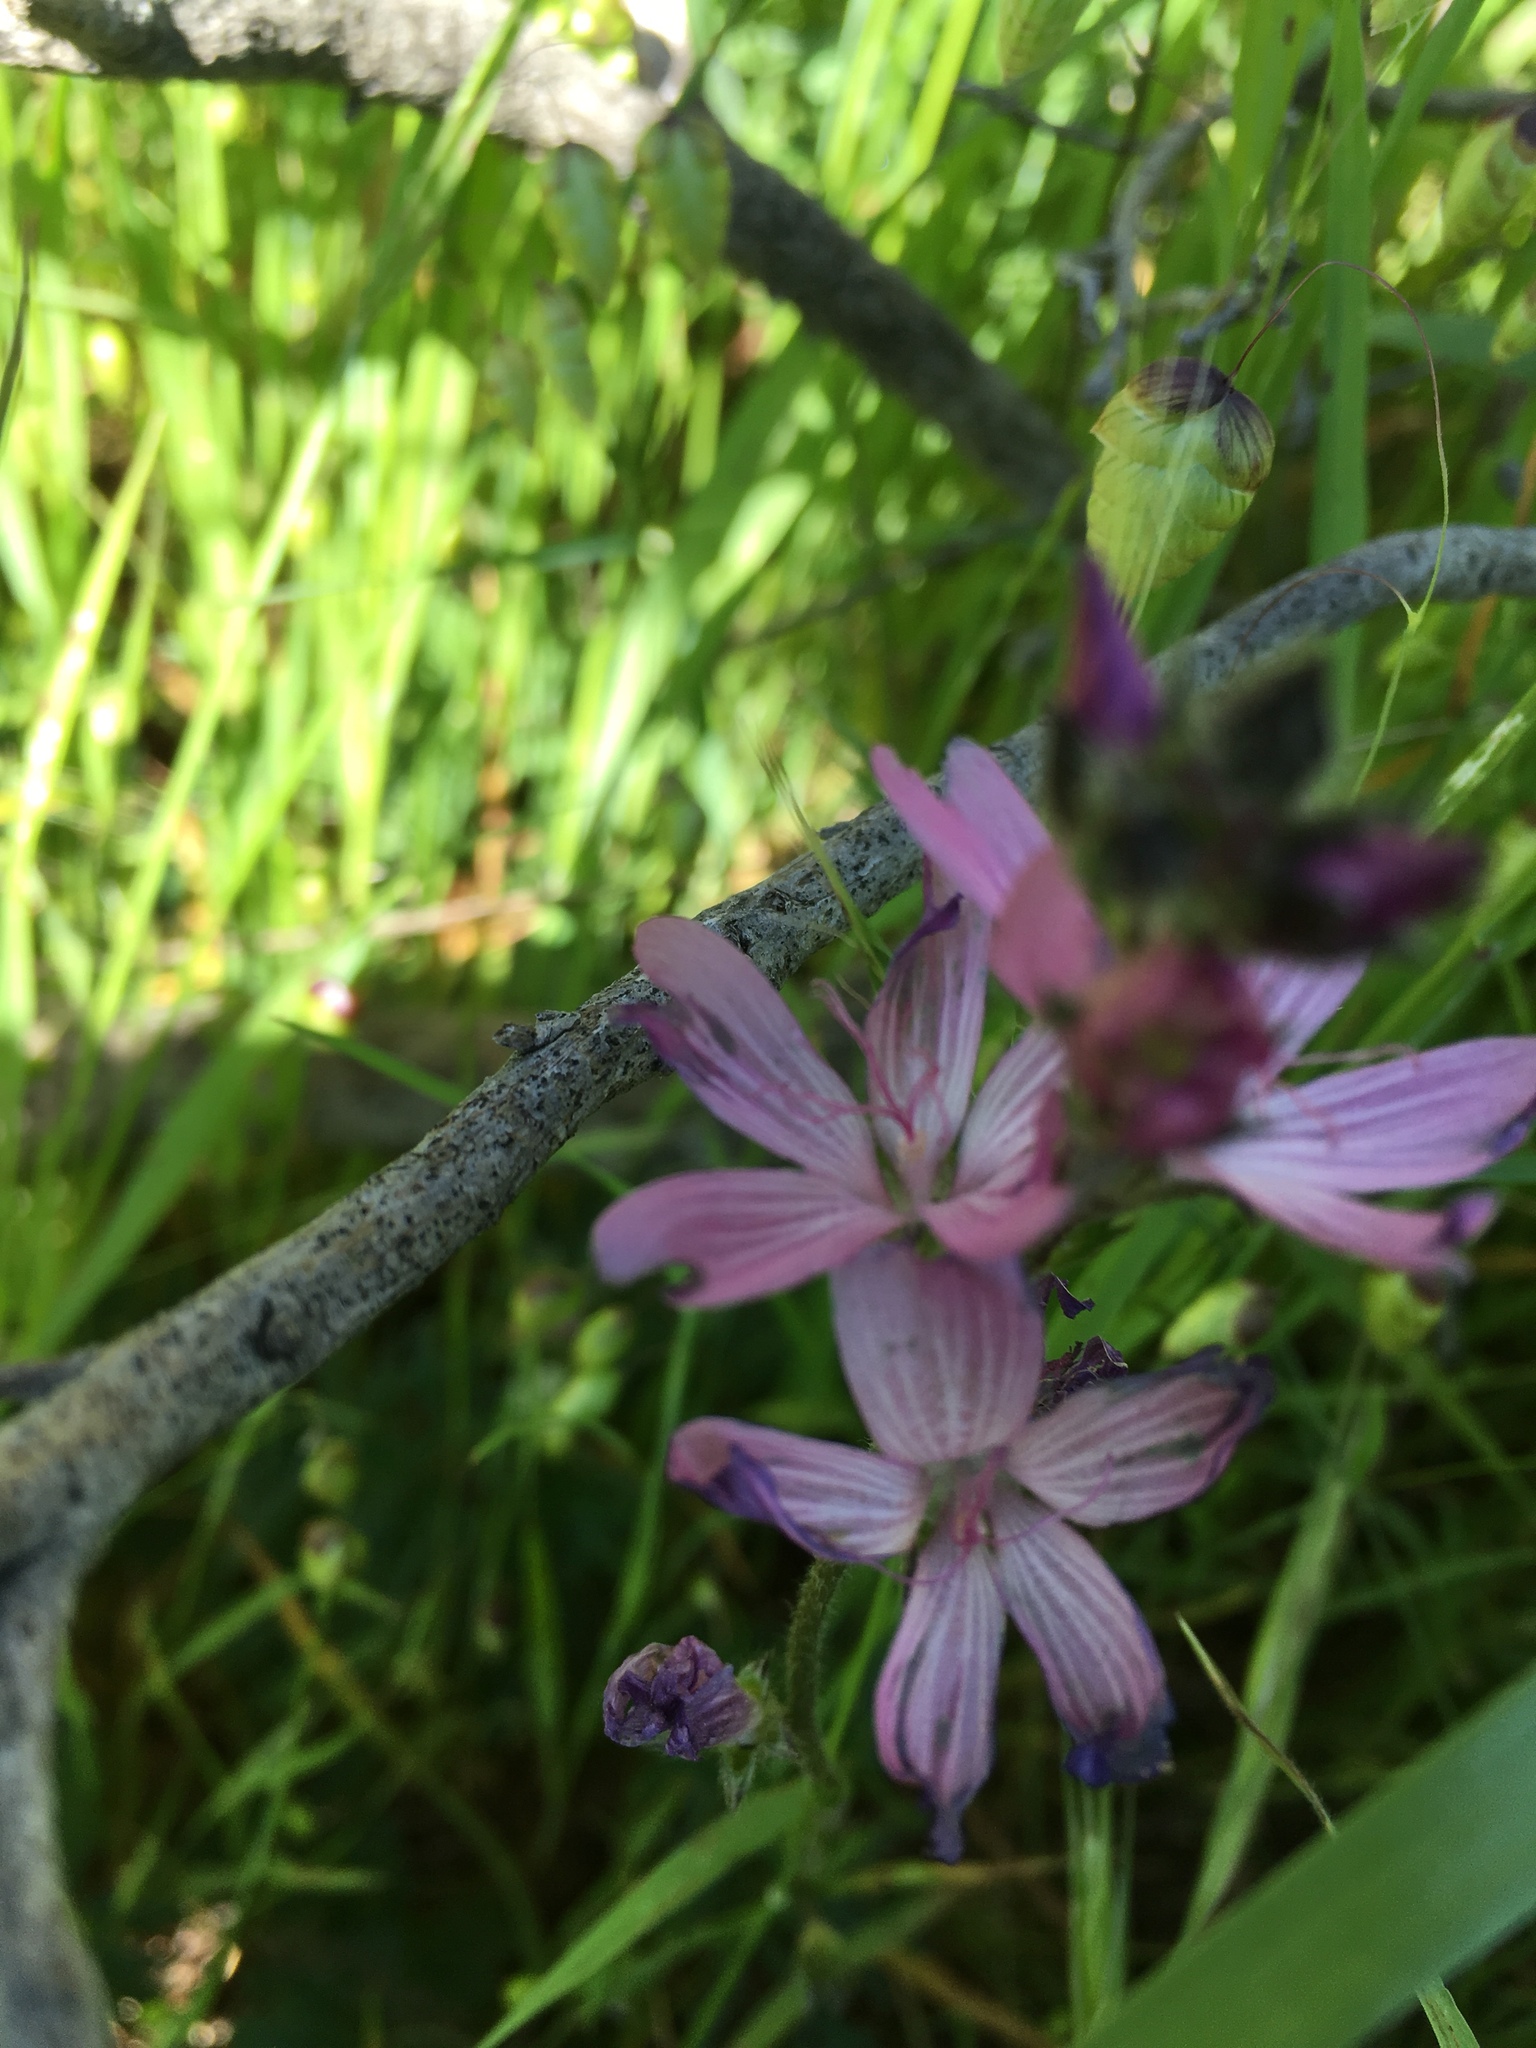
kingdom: Plantae
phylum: Tracheophyta
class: Magnoliopsida
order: Malvales
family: Malvaceae
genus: Sidalcea
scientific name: Sidalcea malviflora
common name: Greek mallow
